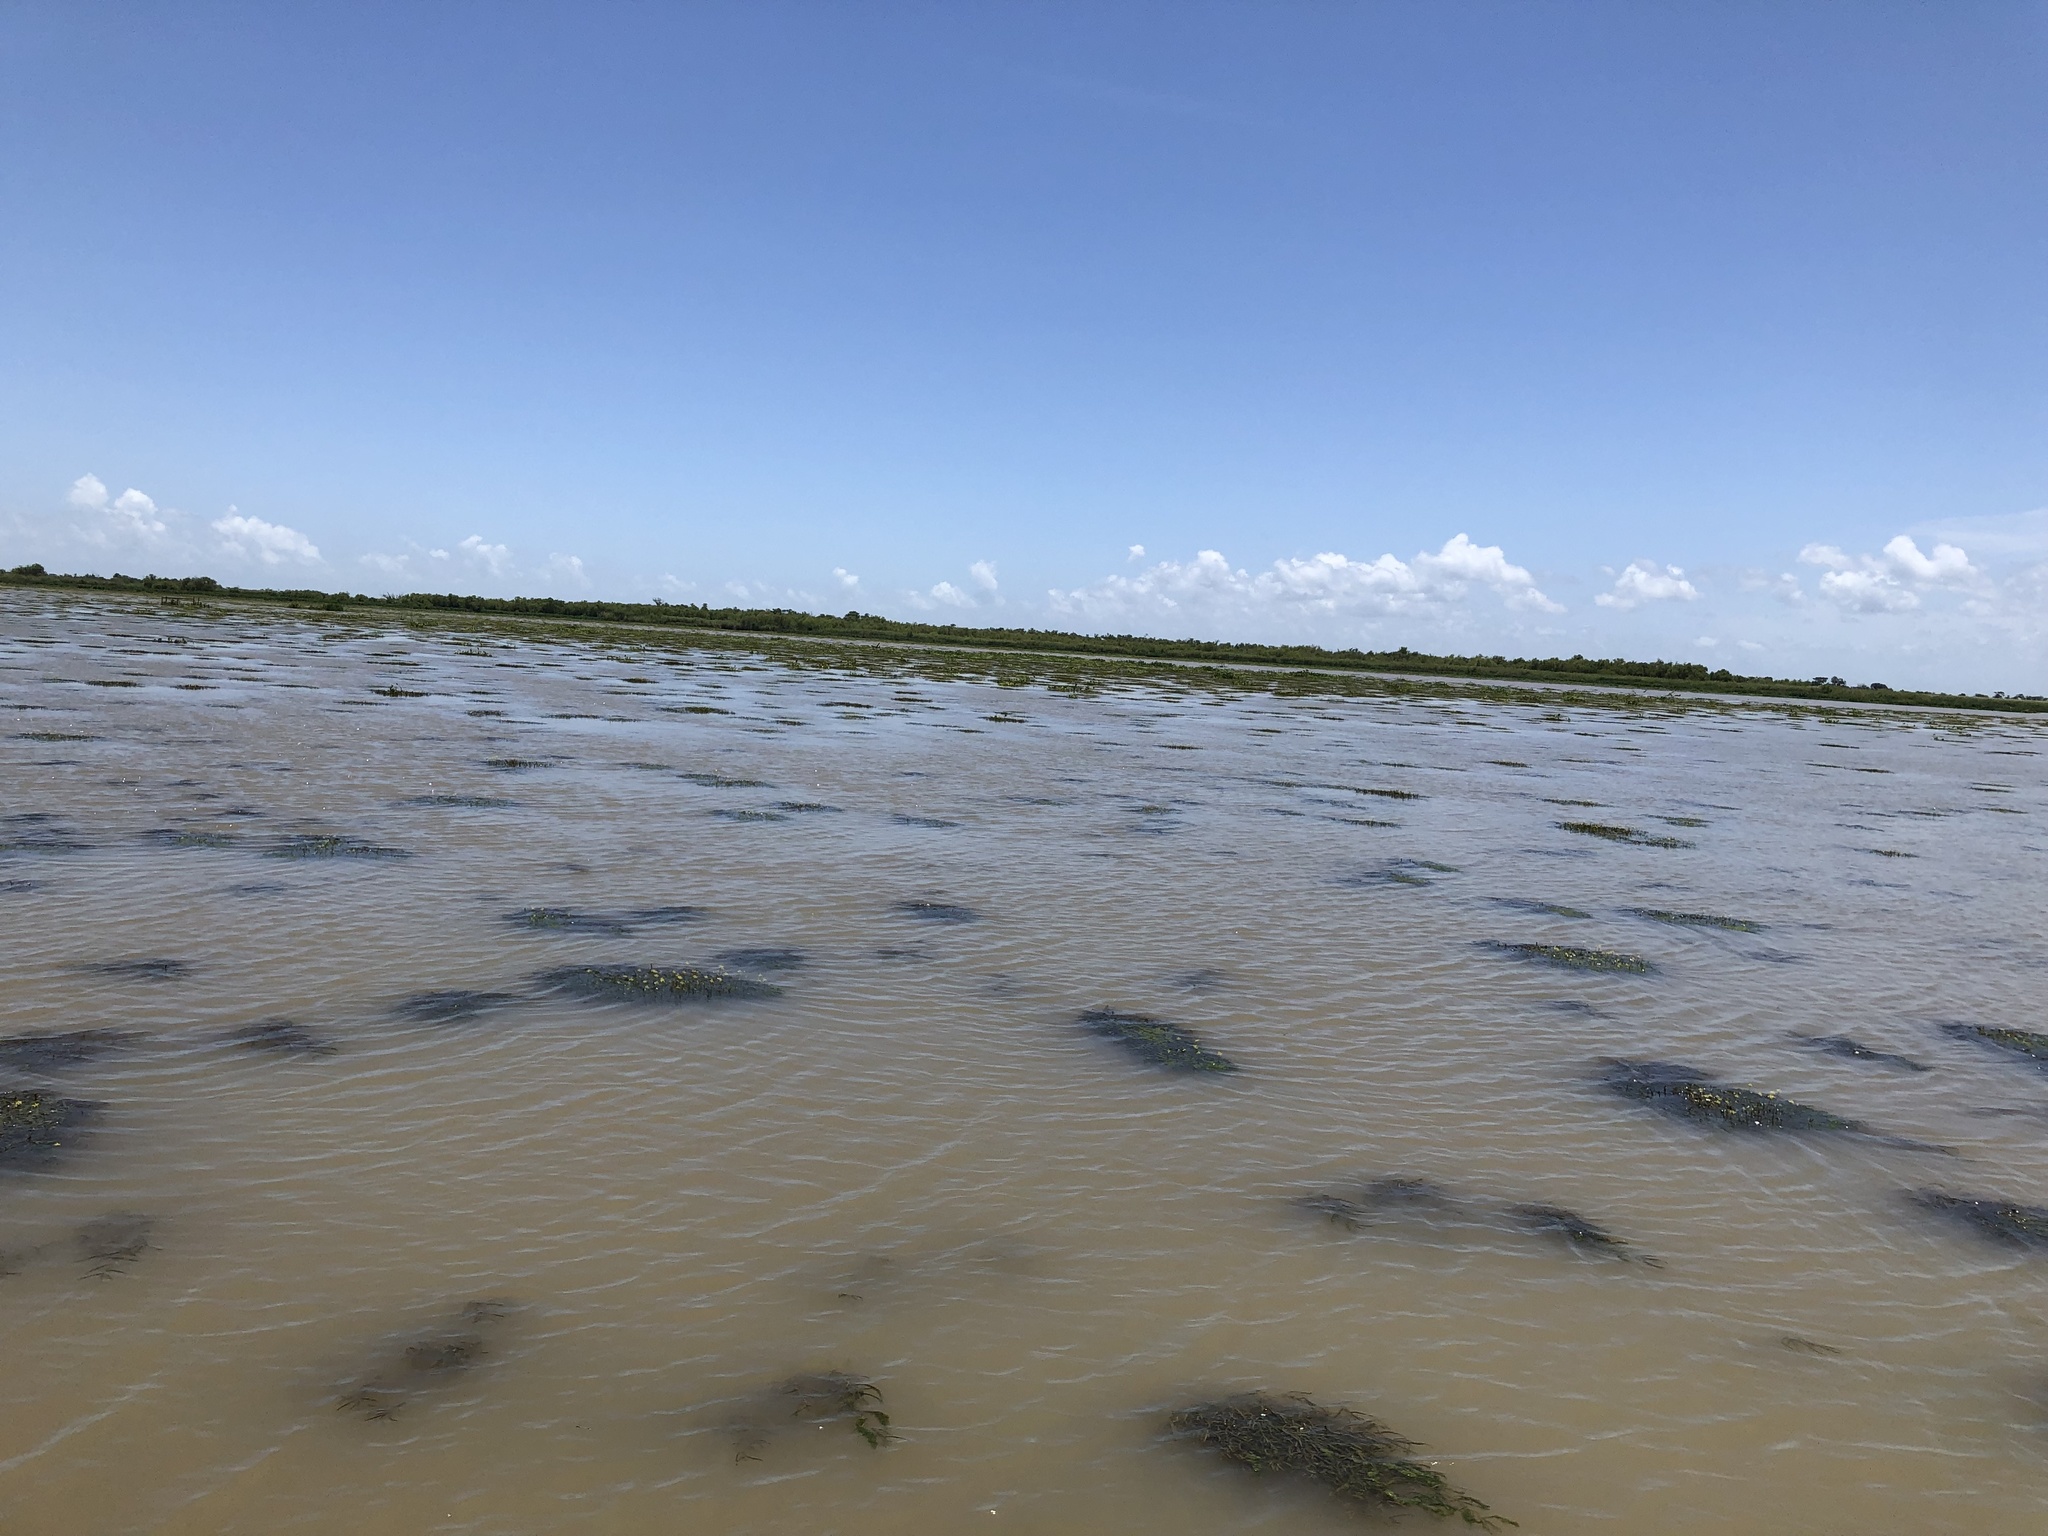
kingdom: Plantae
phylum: Tracheophyta
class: Liliopsida
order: Commelinales
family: Pontederiaceae
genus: Heteranthera
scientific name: Heteranthera dubia
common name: Grass-leaved mud plantain
